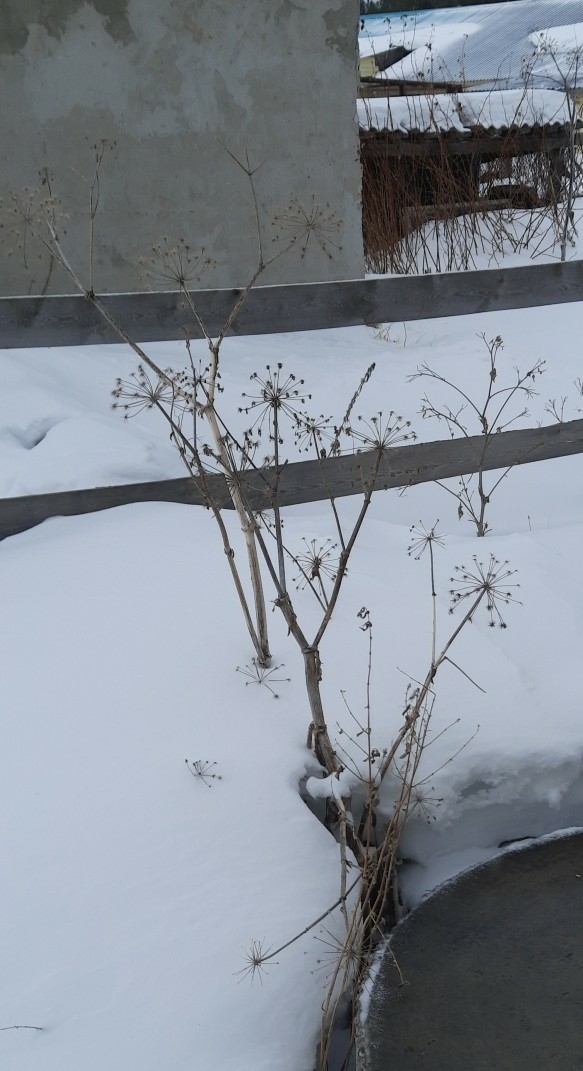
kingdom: Plantae
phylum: Tracheophyta
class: Magnoliopsida
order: Apiales
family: Apiaceae
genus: Angelica
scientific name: Angelica decurrens
